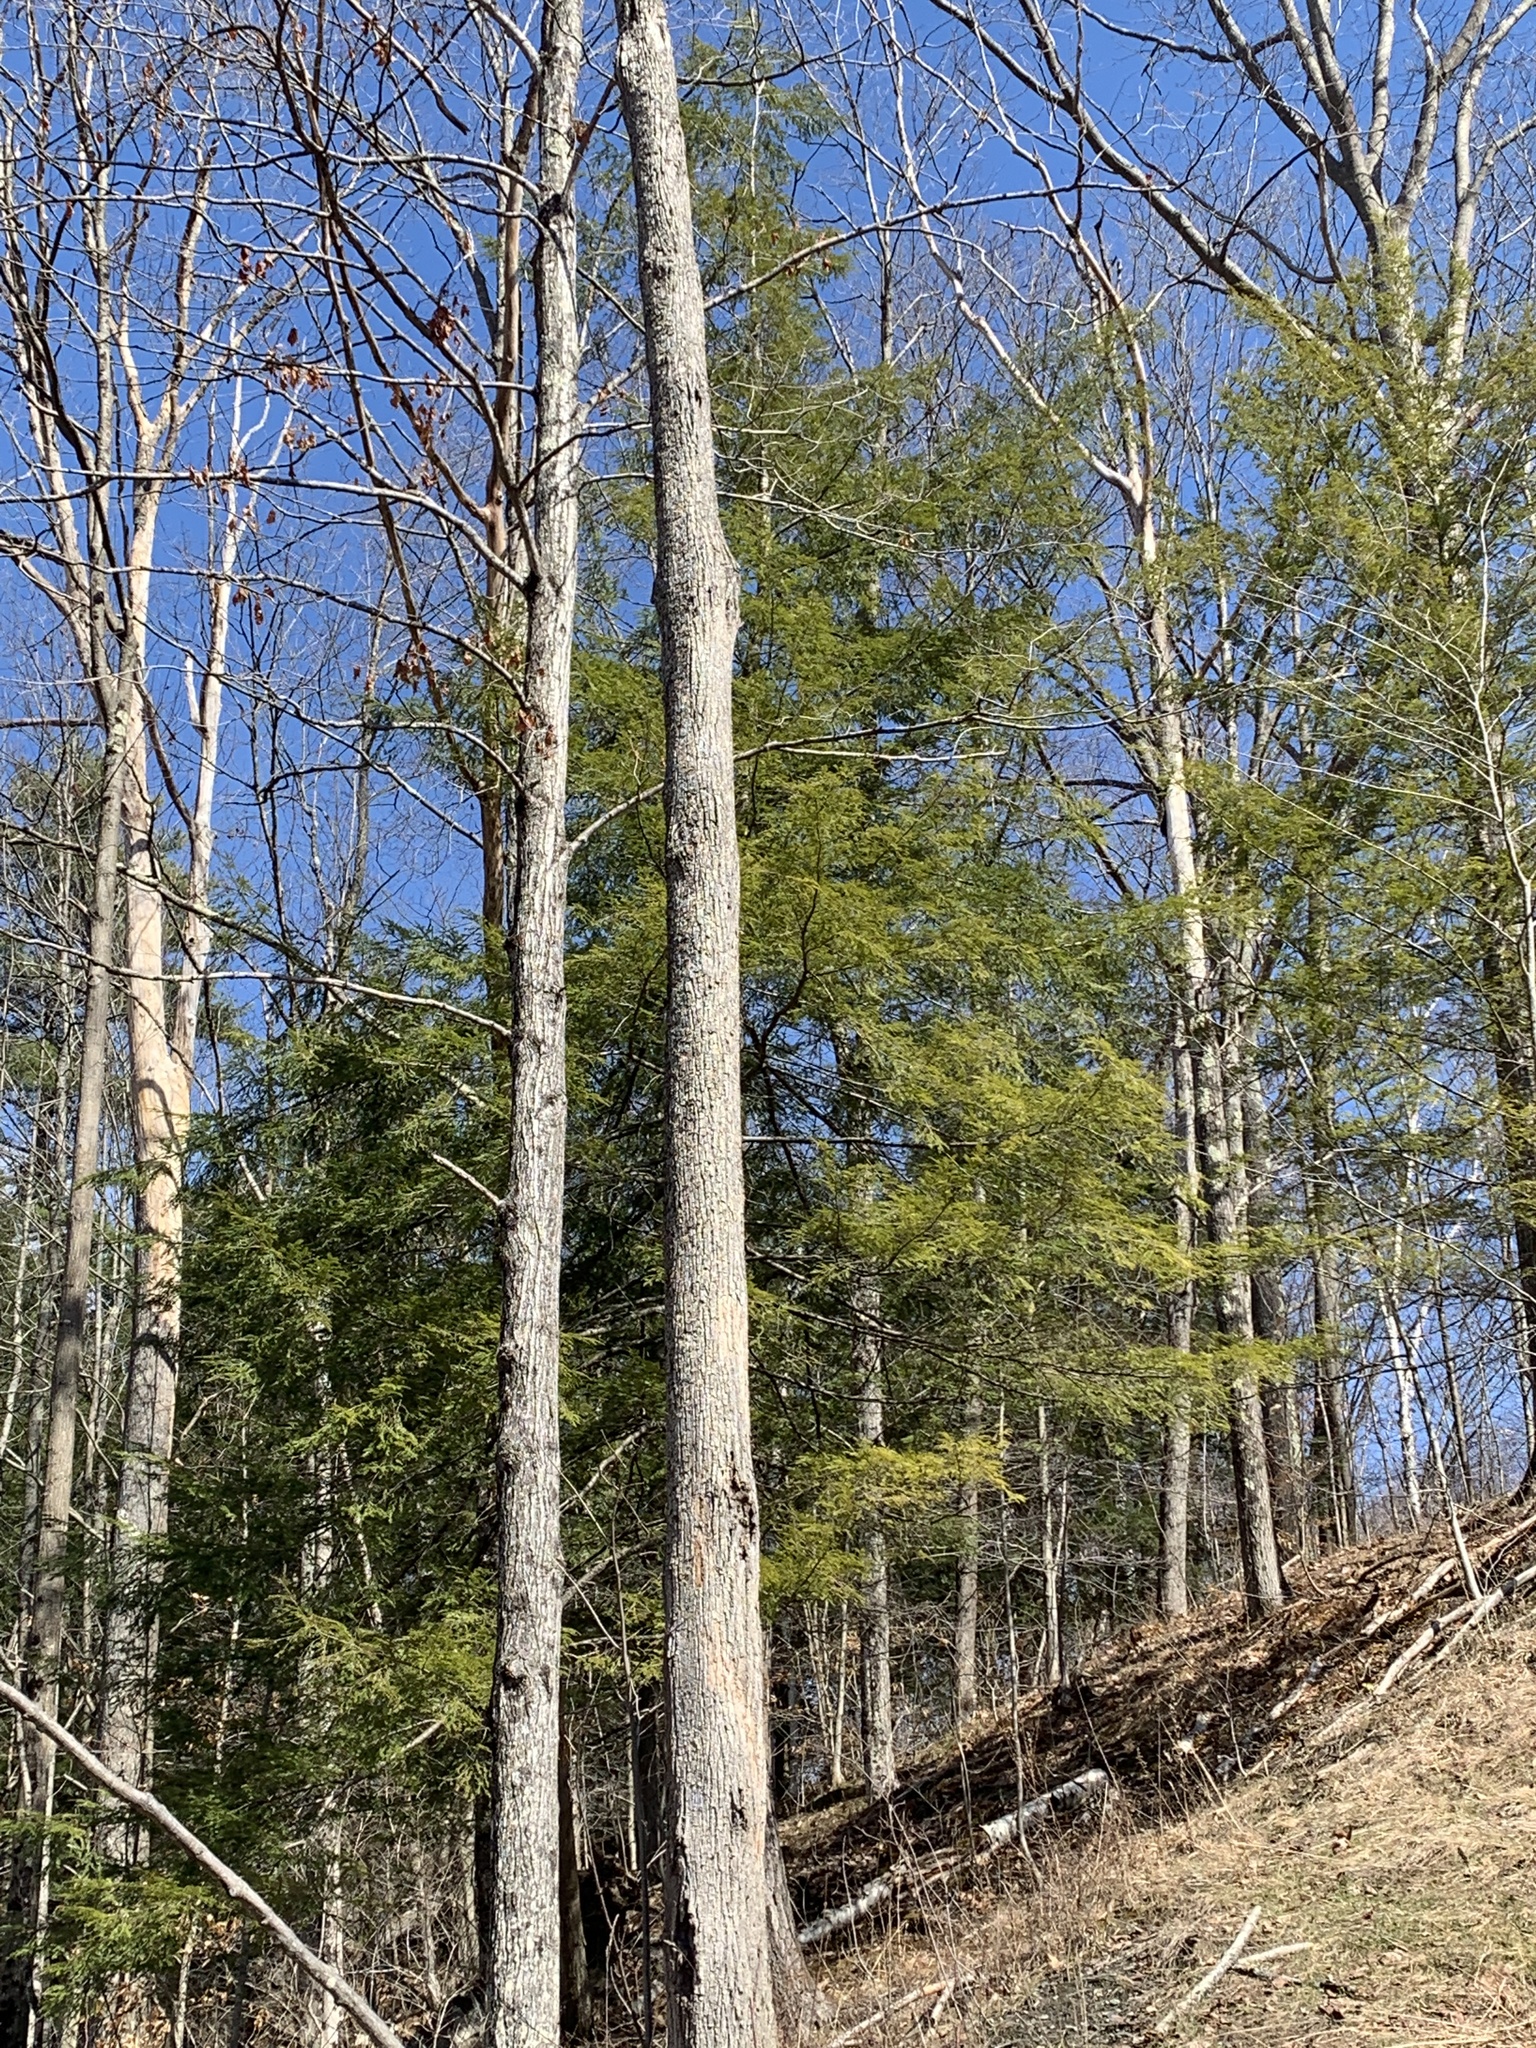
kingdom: Plantae
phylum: Tracheophyta
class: Pinopsida
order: Pinales
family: Pinaceae
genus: Tsuga
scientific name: Tsuga canadensis
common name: Eastern hemlock
